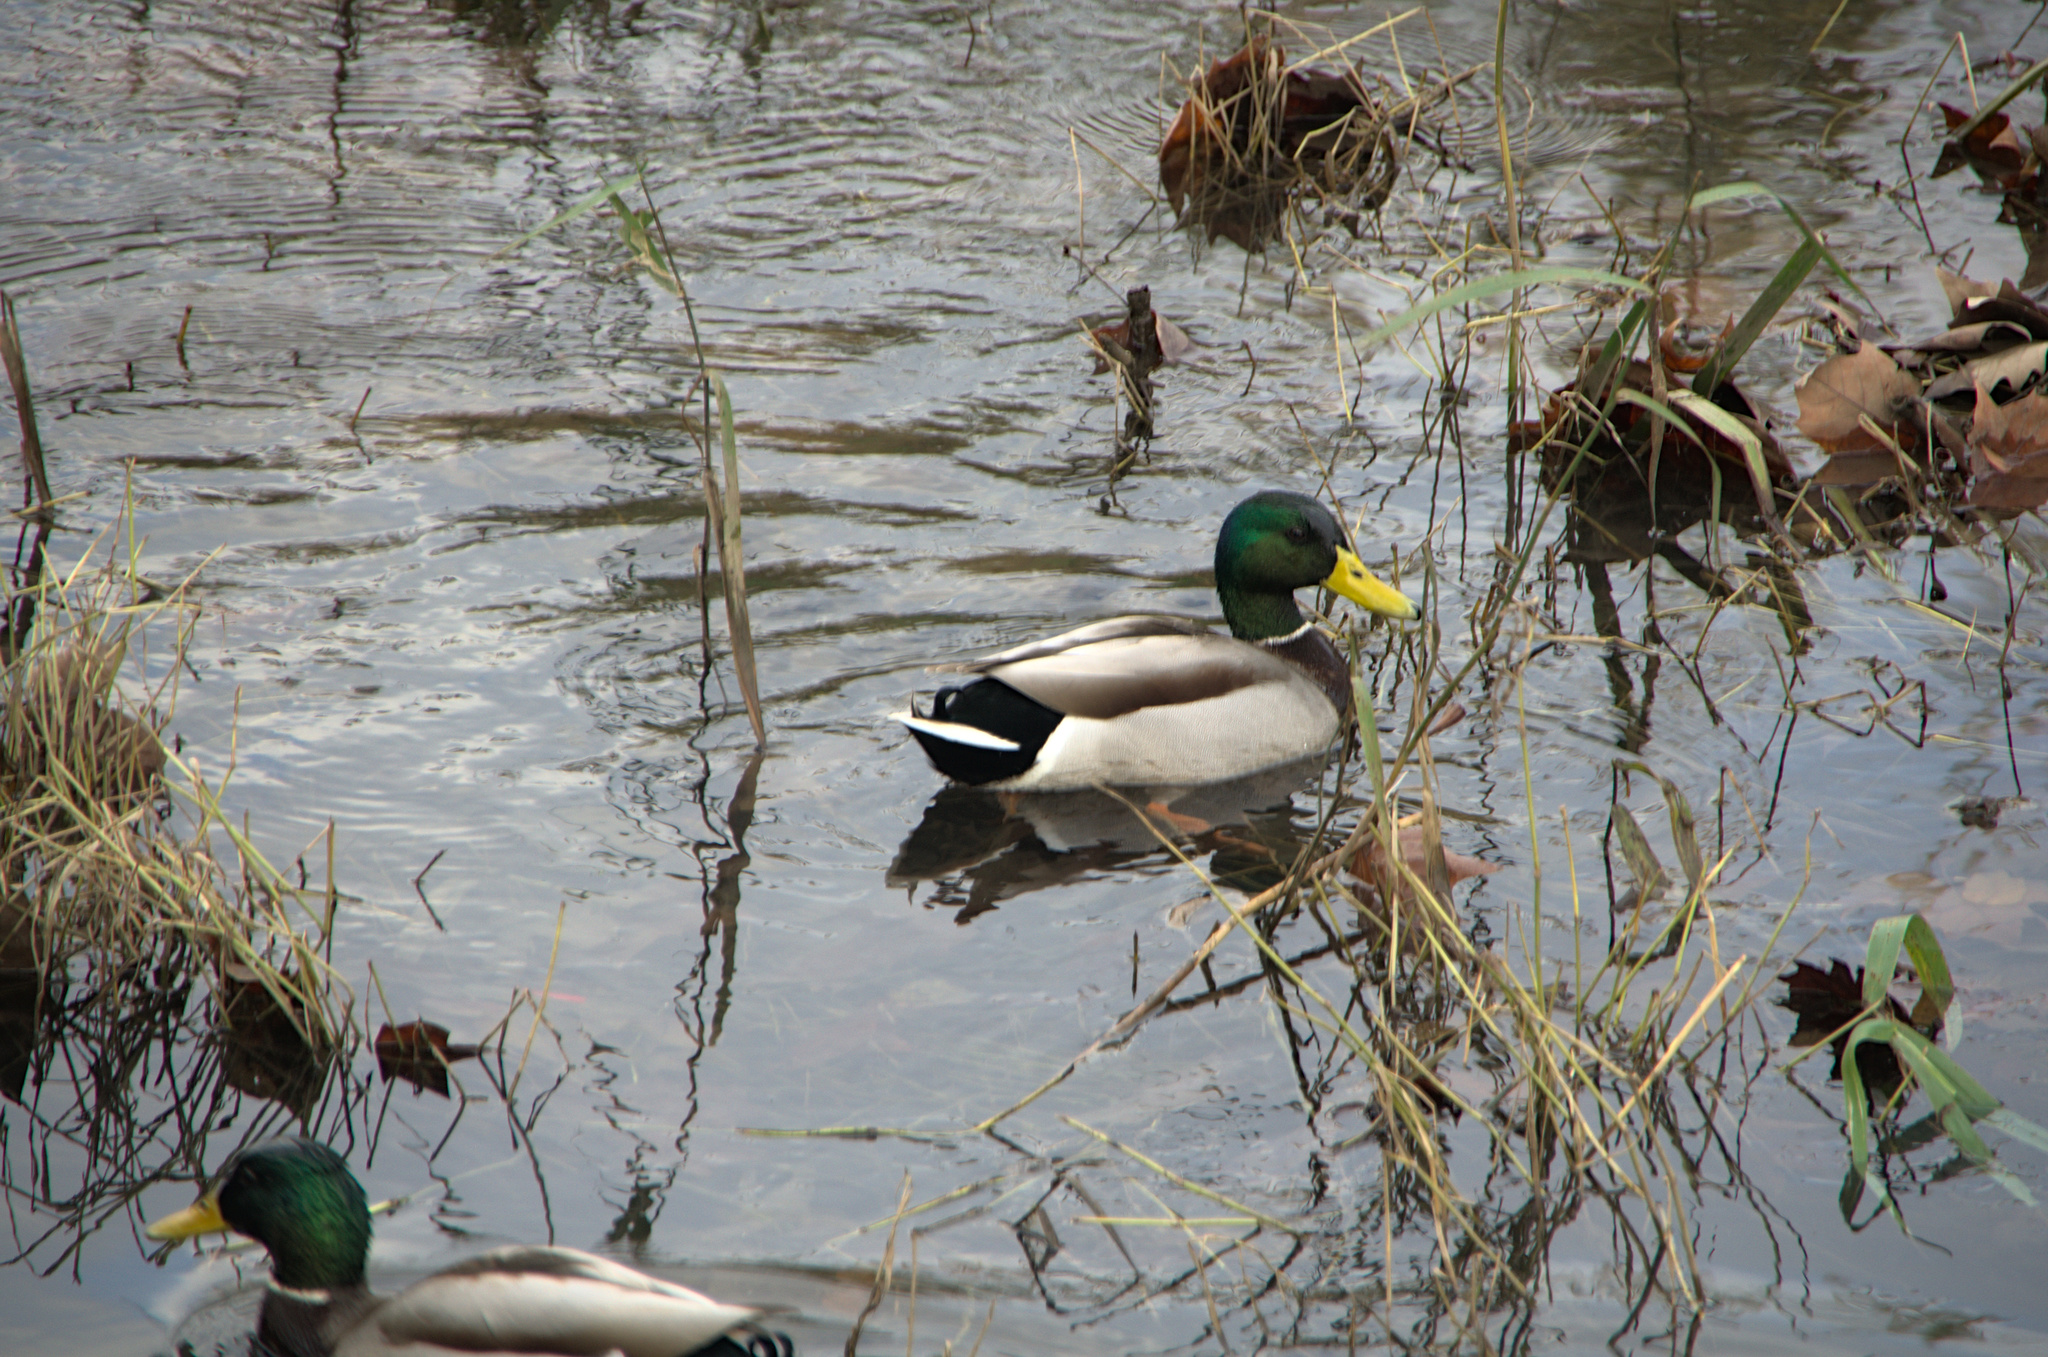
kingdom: Animalia
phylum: Chordata
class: Aves
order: Anseriformes
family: Anatidae
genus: Anas
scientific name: Anas platyrhynchos
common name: Mallard
